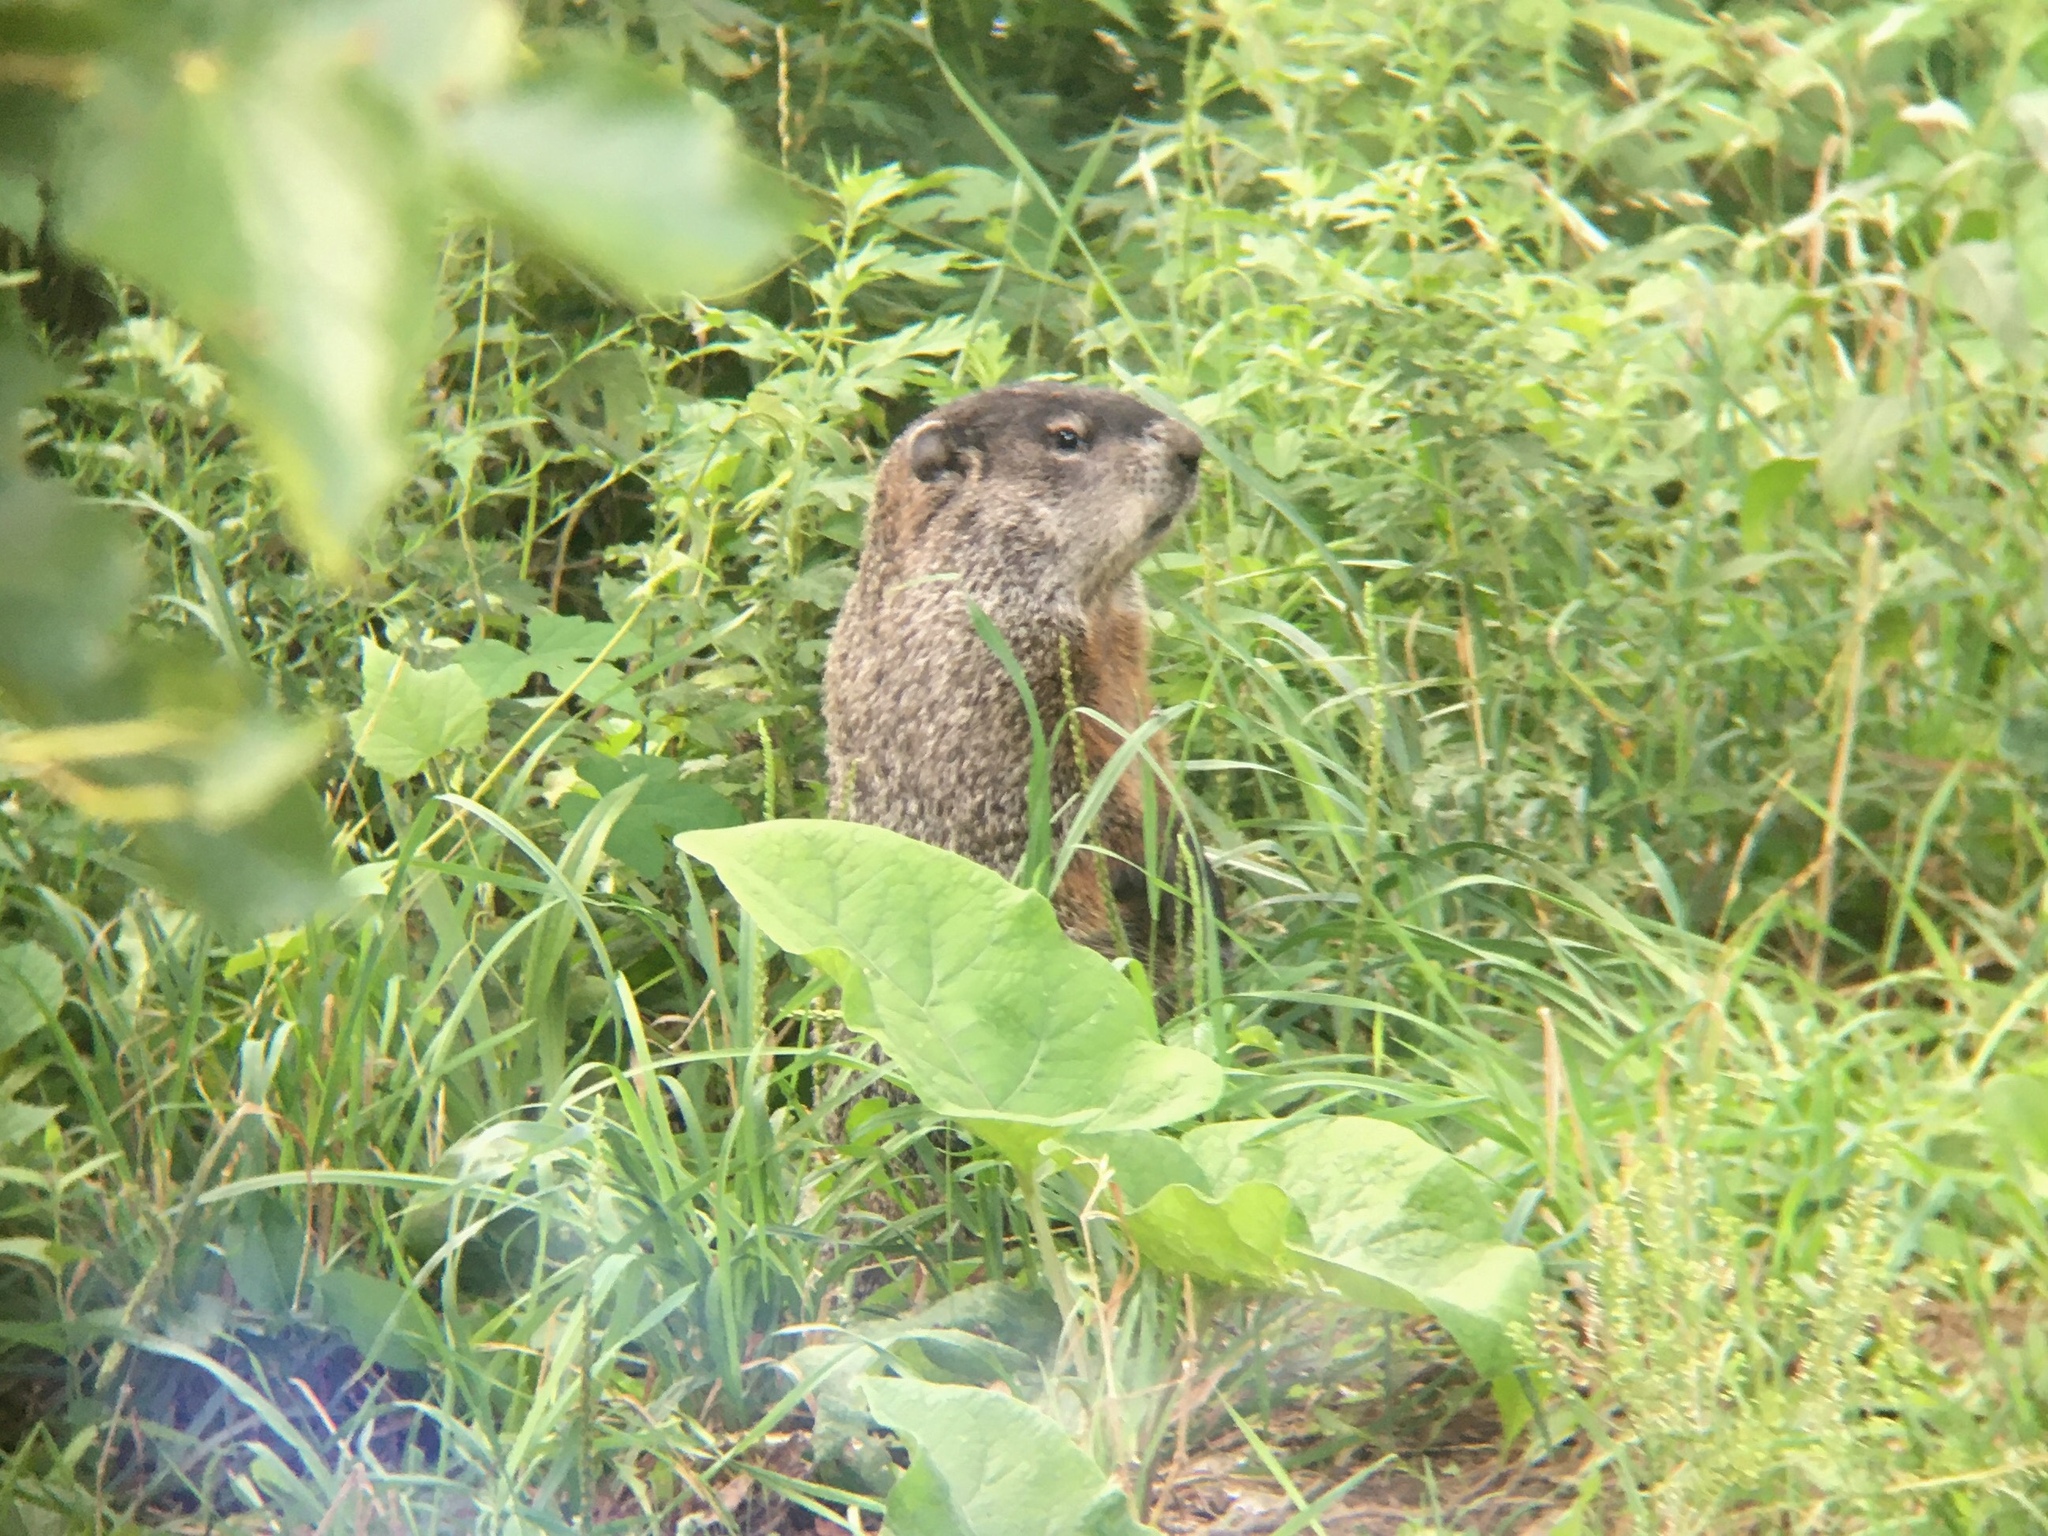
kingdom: Animalia
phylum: Chordata
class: Mammalia
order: Rodentia
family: Sciuridae
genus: Marmota
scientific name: Marmota monax
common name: Groundhog
